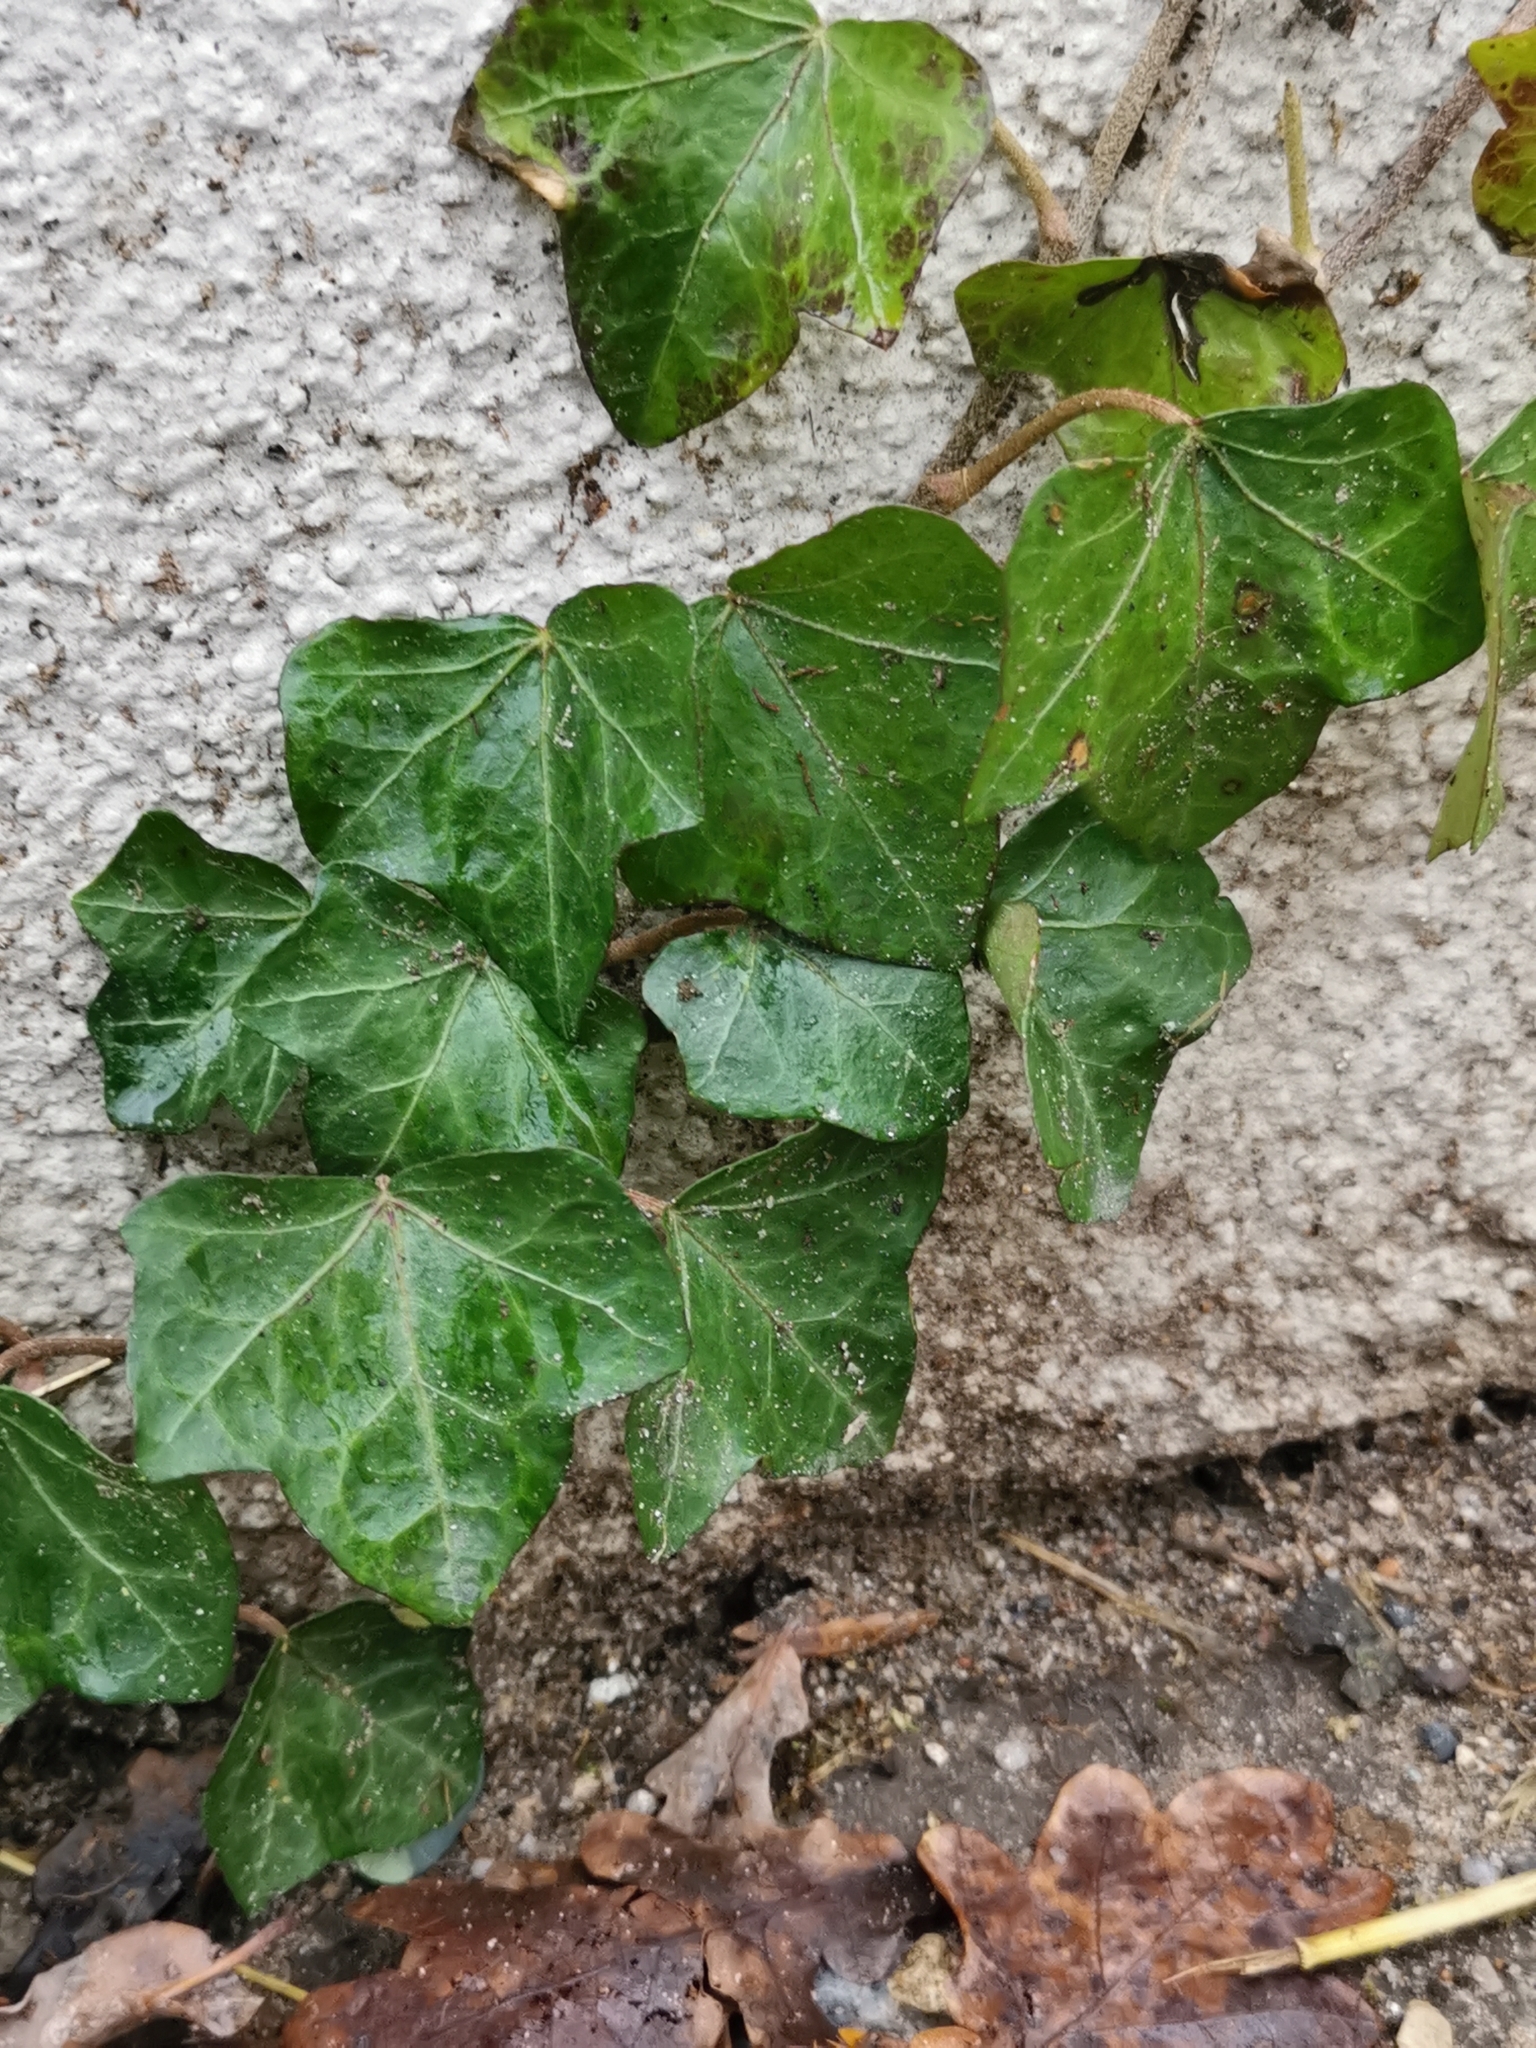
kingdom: Plantae
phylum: Tracheophyta
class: Magnoliopsida
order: Apiales
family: Araliaceae
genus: Hedera
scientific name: Hedera helix
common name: Ivy
